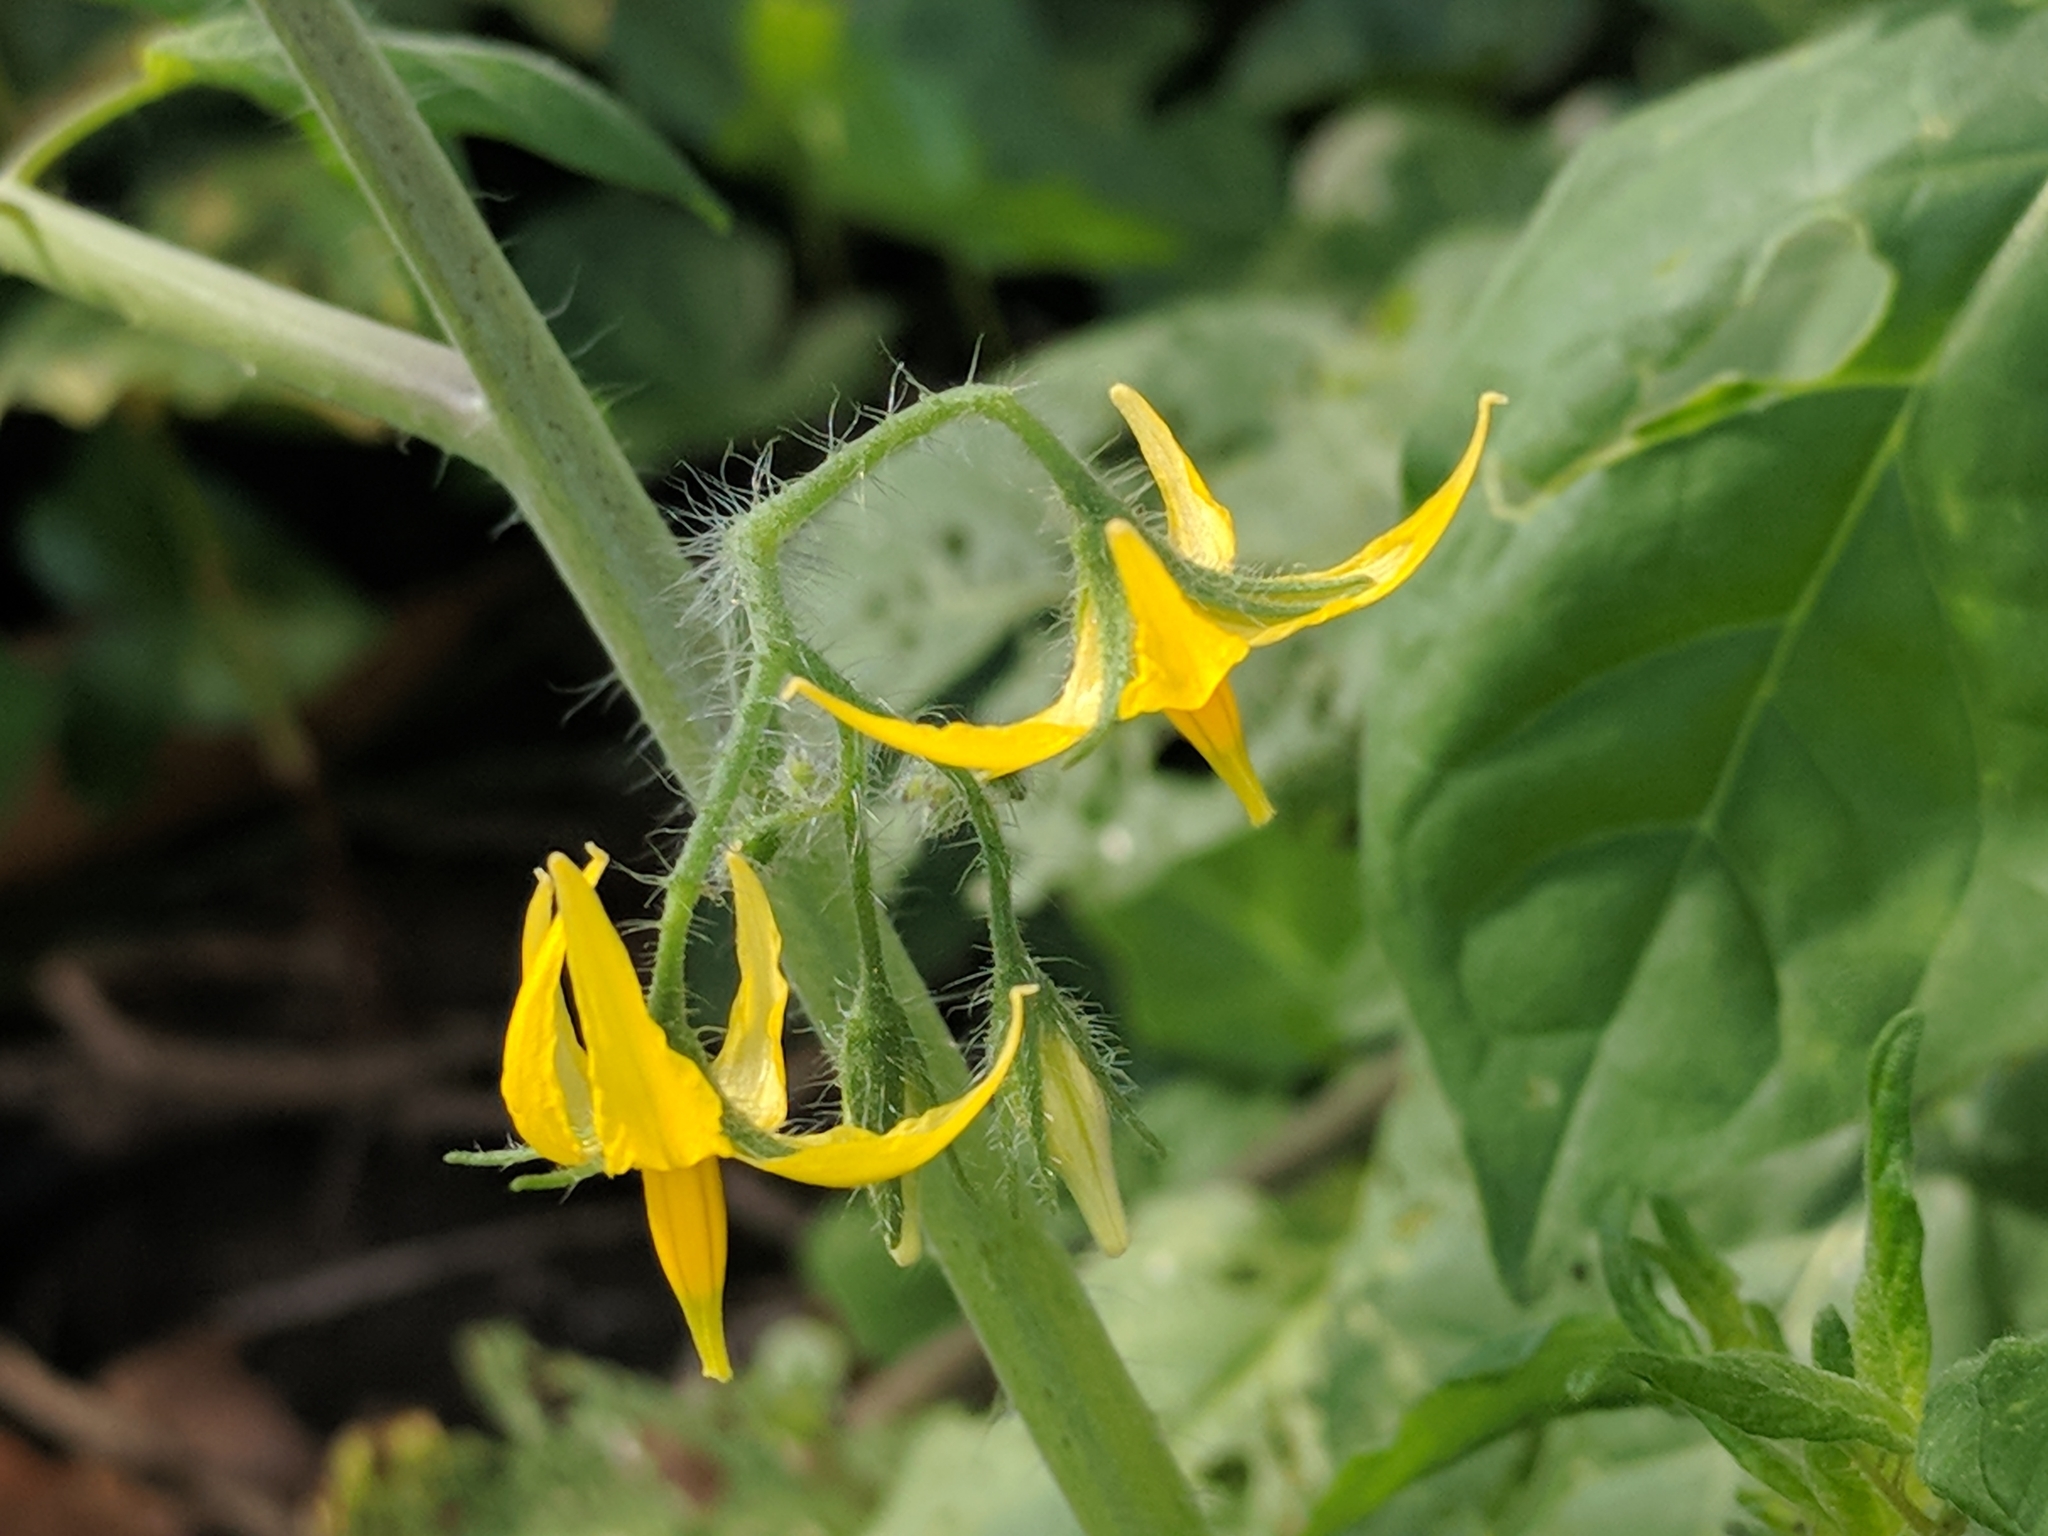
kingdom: Plantae
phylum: Tracheophyta
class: Magnoliopsida
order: Solanales
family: Solanaceae
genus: Solanum
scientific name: Solanum lycopersicum
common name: Garden tomato
